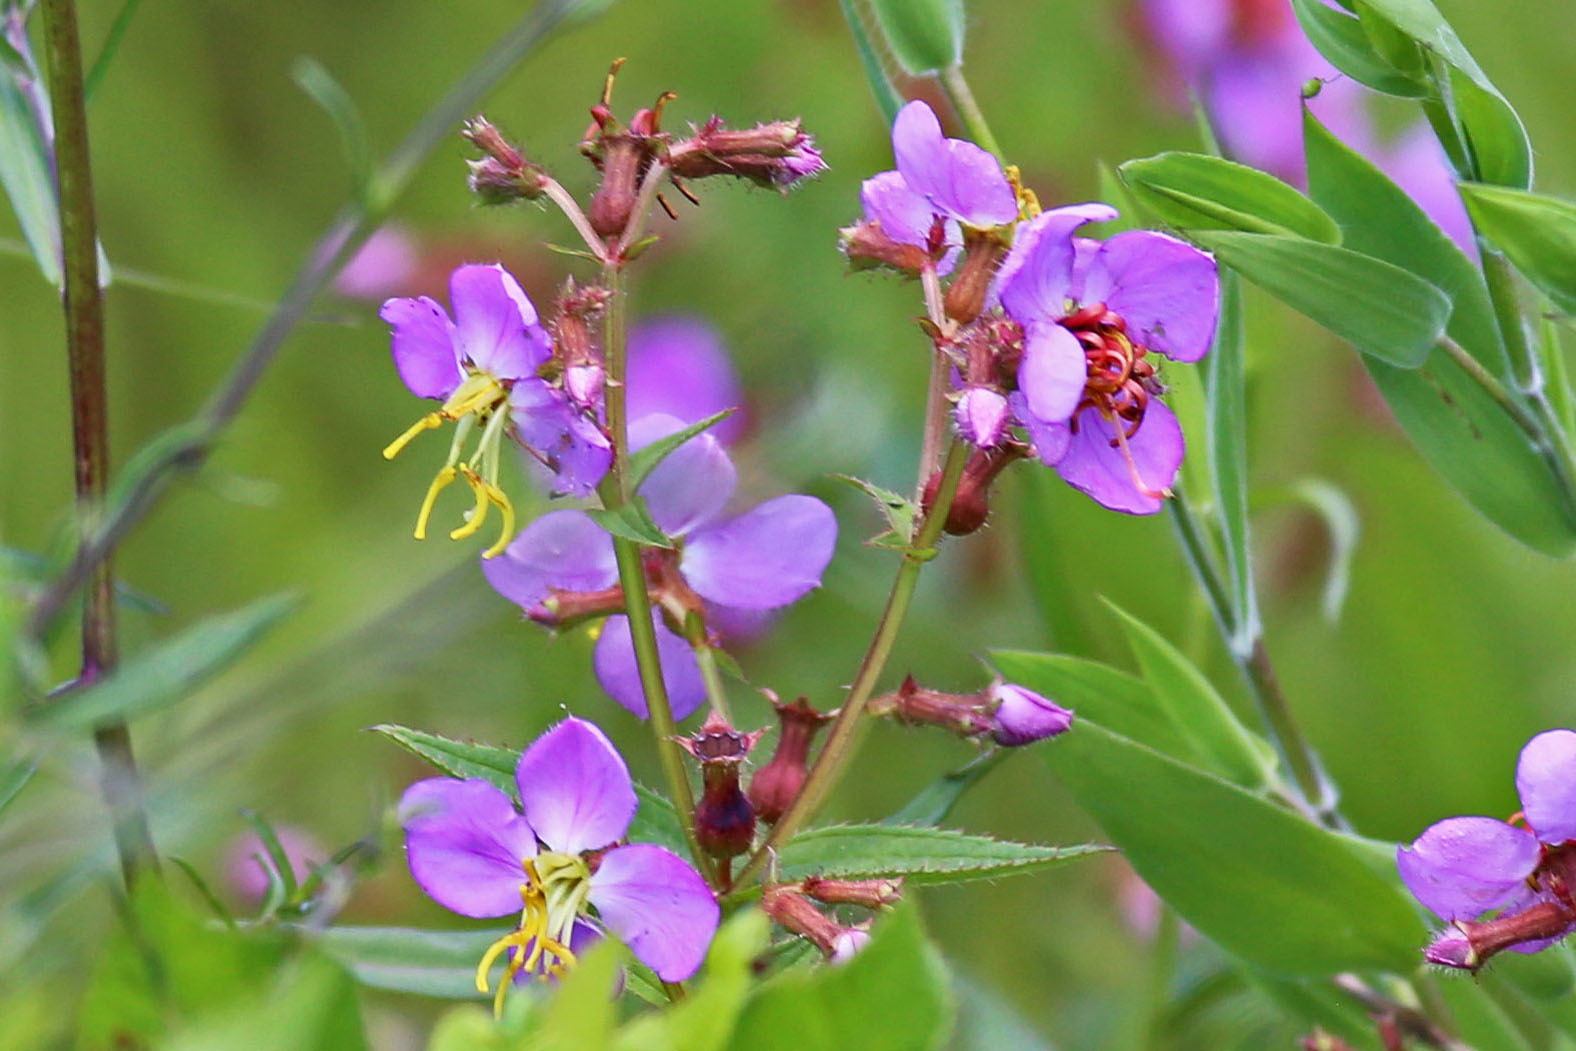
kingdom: Plantae
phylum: Tracheophyta
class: Magnoliopsida
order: Myrtales
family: Melastomataceae
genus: Rhexia
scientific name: Rhexia virginica
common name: Common meadow beauty
